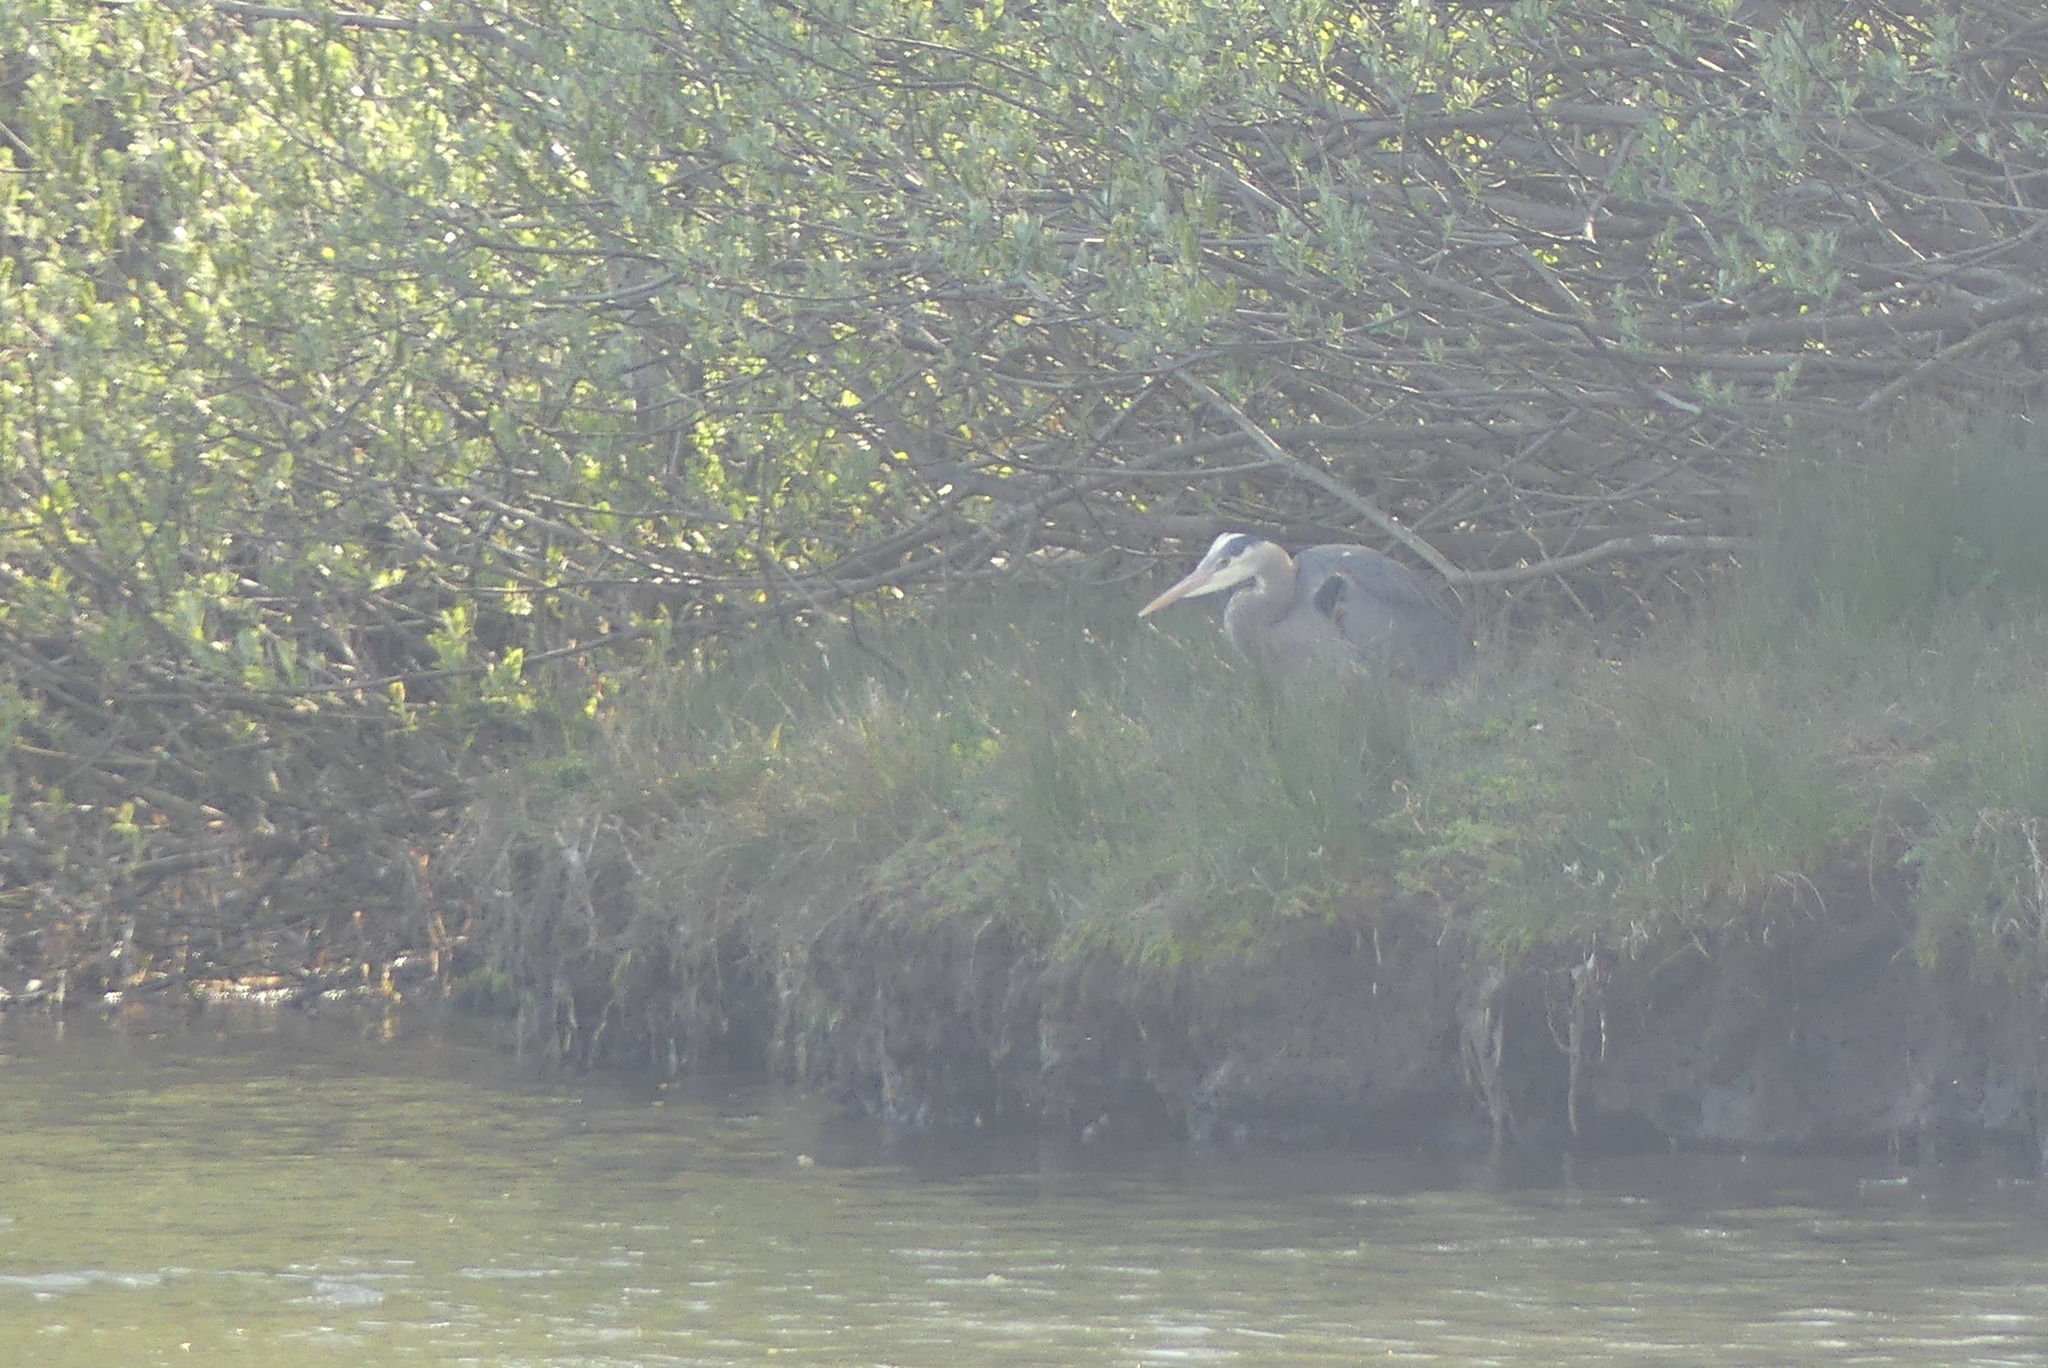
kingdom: Animalia
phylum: Chordata
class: Aves
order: Pelecaniformes
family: Ardeidae
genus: Ardea
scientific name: Ardea herodias
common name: Great blue heron
